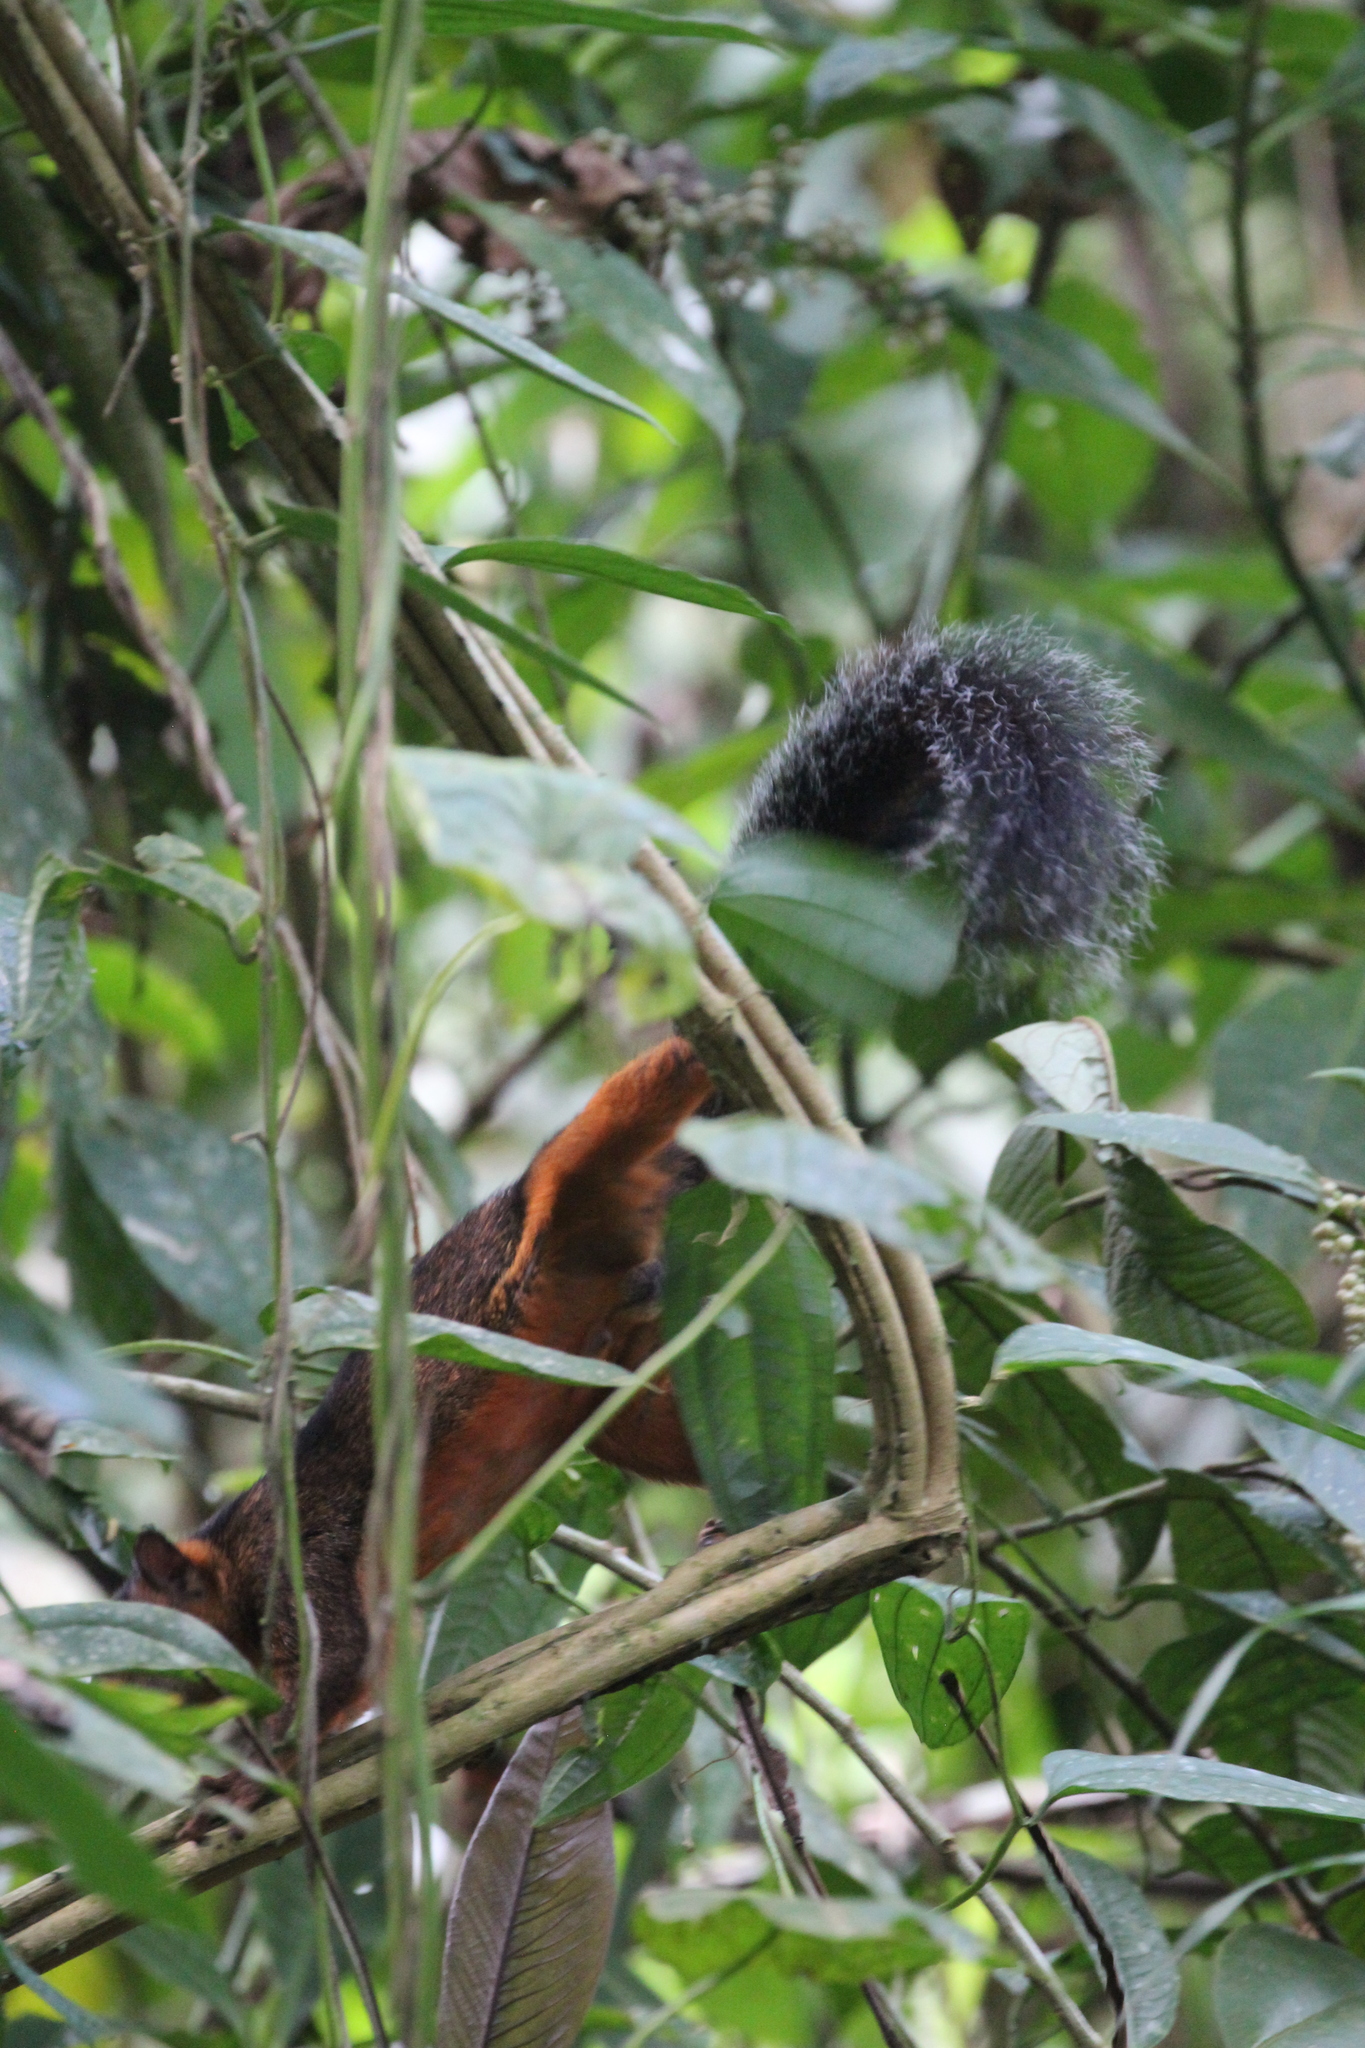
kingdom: Animalia
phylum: Chordata
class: Mammalia
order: Rodentia
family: Sciuridae
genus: Sciurus
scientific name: Sciurus variegatoides
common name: Variegated squirrel
